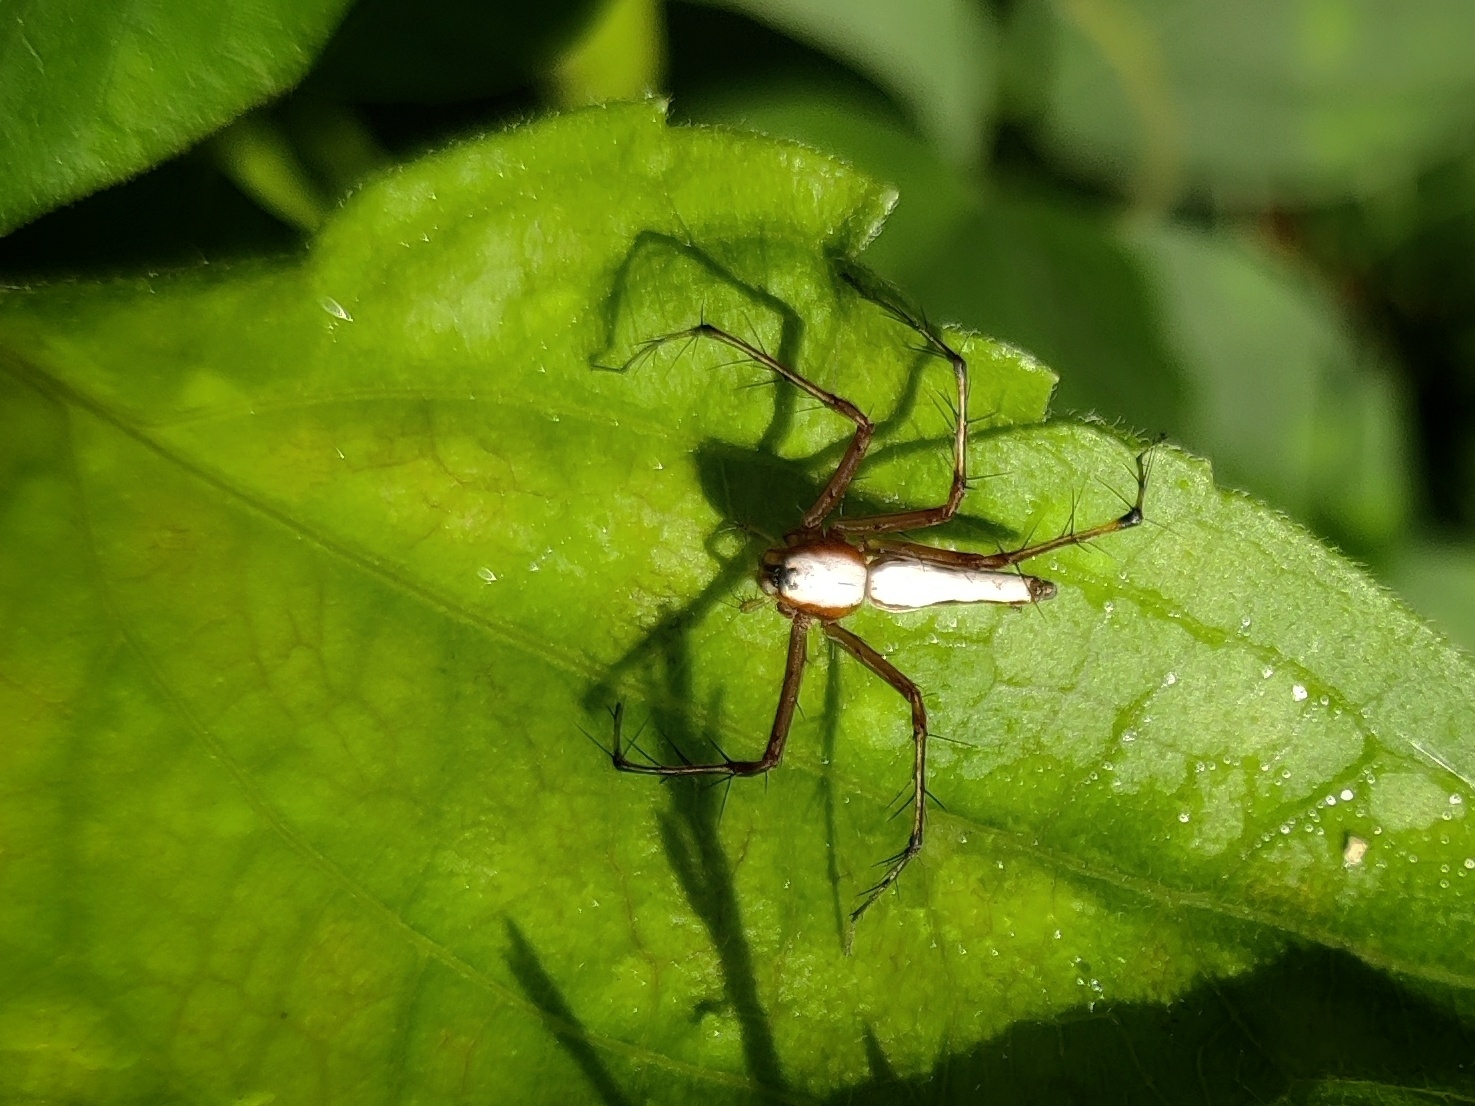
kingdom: Animalia
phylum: Arthropoda
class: Arachnida
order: Araneae
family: Oxyopidae
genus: Oxyopes
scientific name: Oxyopes shweta
